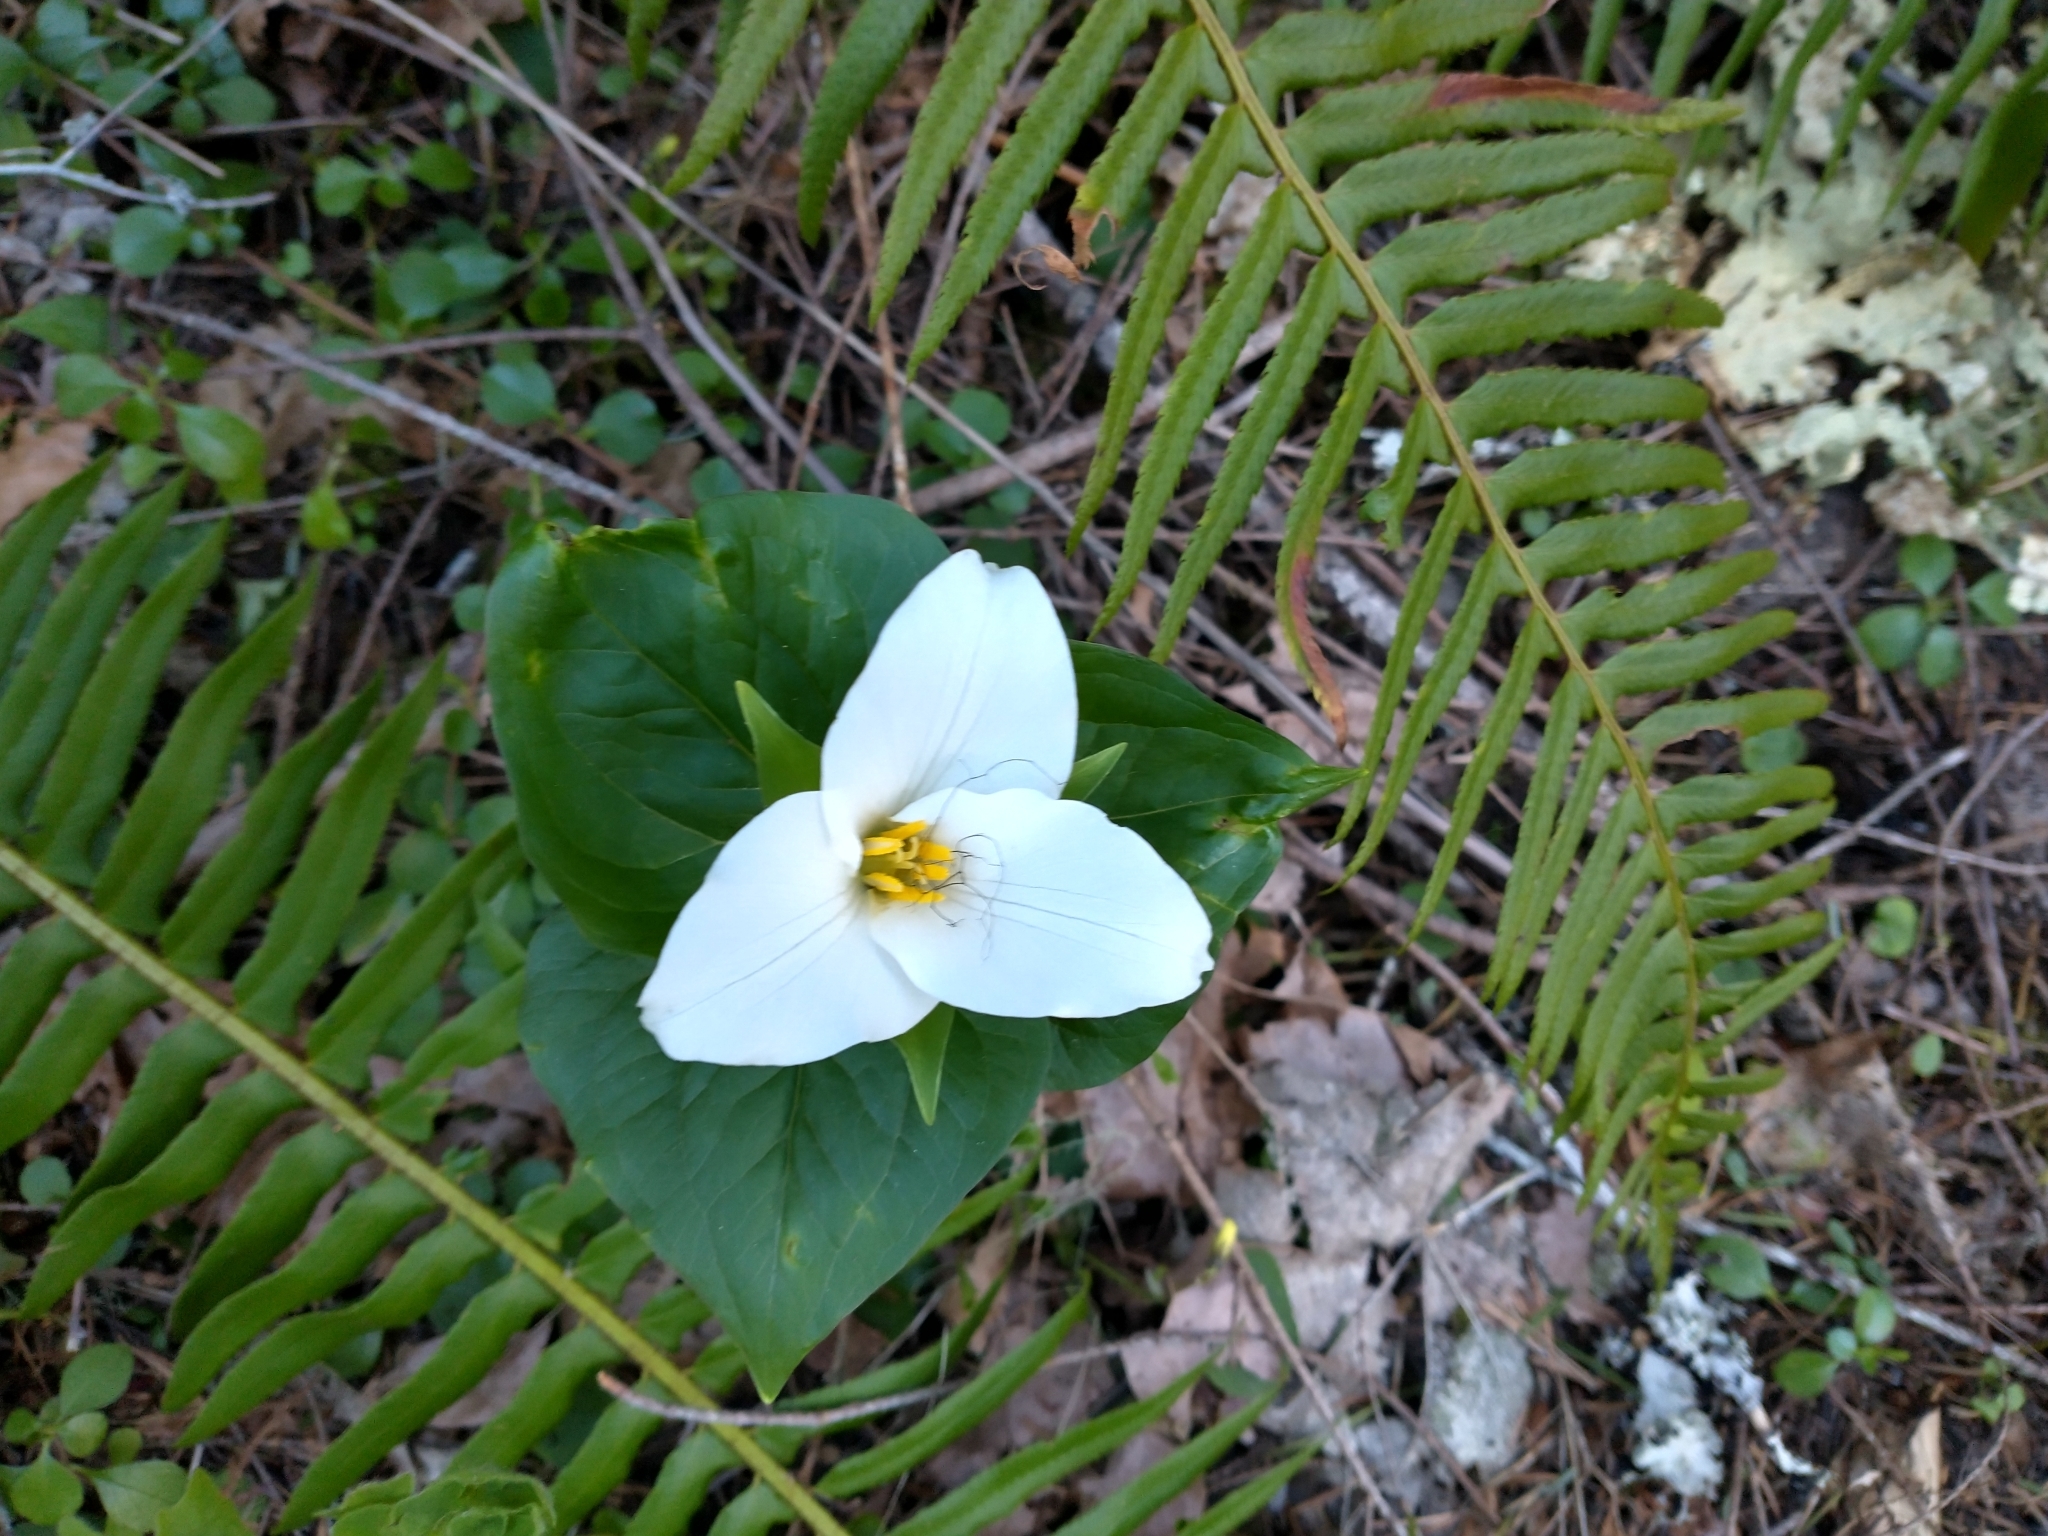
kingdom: Plantae
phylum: Tracheophyta
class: Liliopsida
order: Liliales
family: Melanthiaceae
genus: Trillium
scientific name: Trillium ovatum
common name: Pacific trillium
